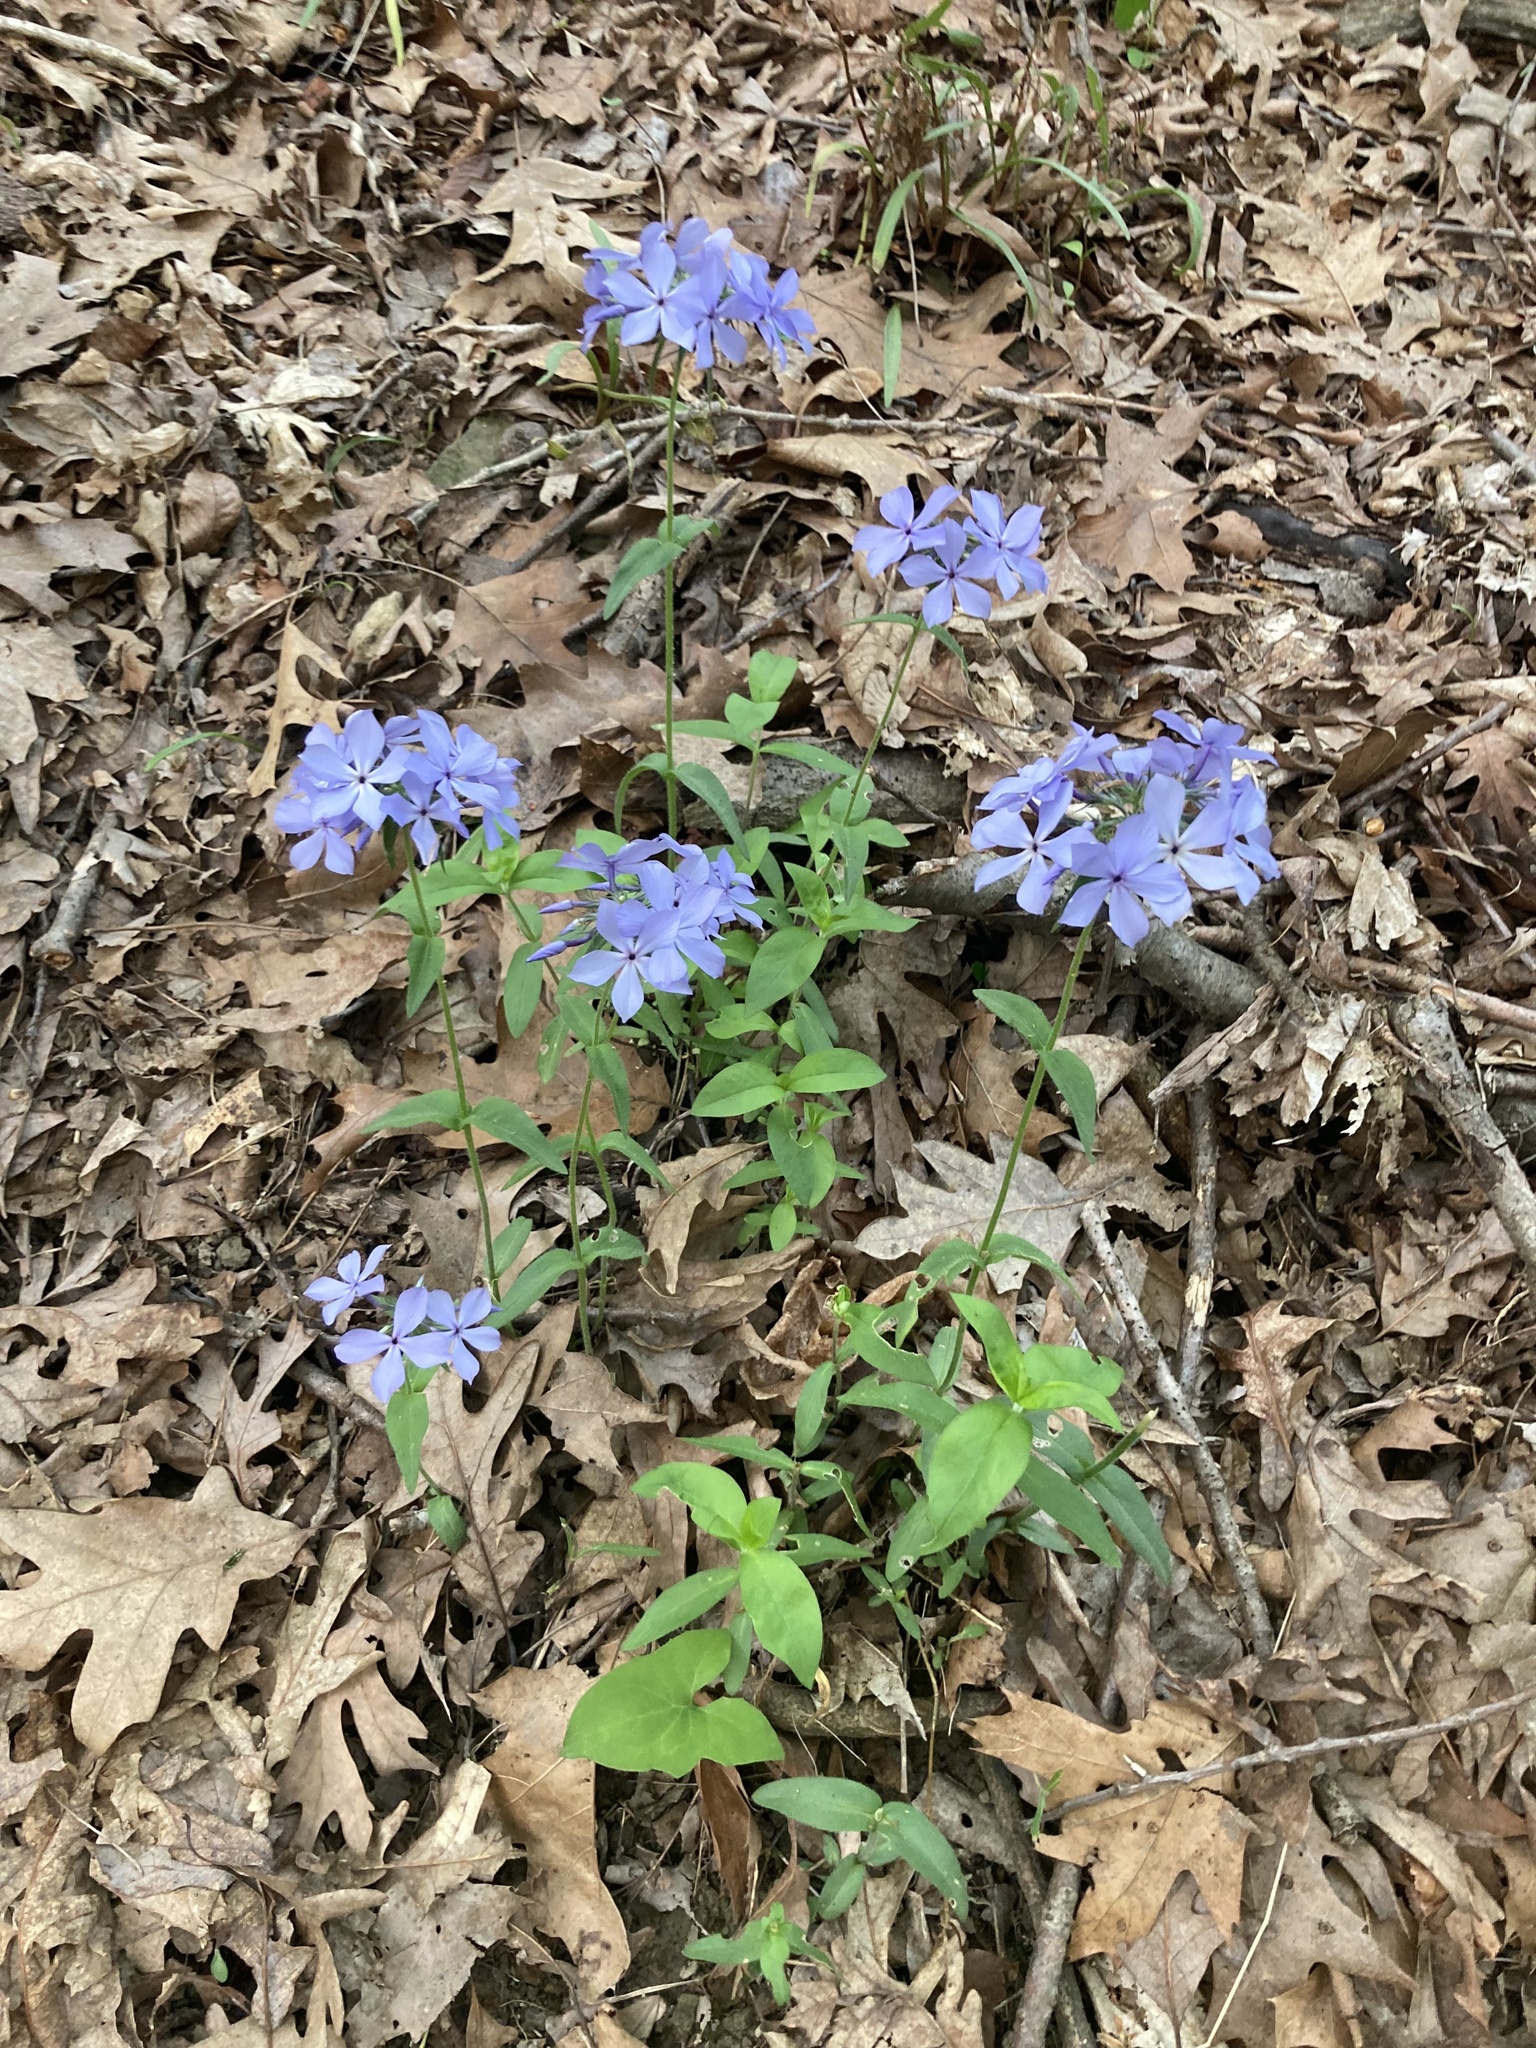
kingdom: Plantae
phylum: Tracheophyta
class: Magnoliopsida
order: Ericales
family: Polemoniaceae
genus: Phlox
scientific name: Phlox divaricata
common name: Blue phlox
